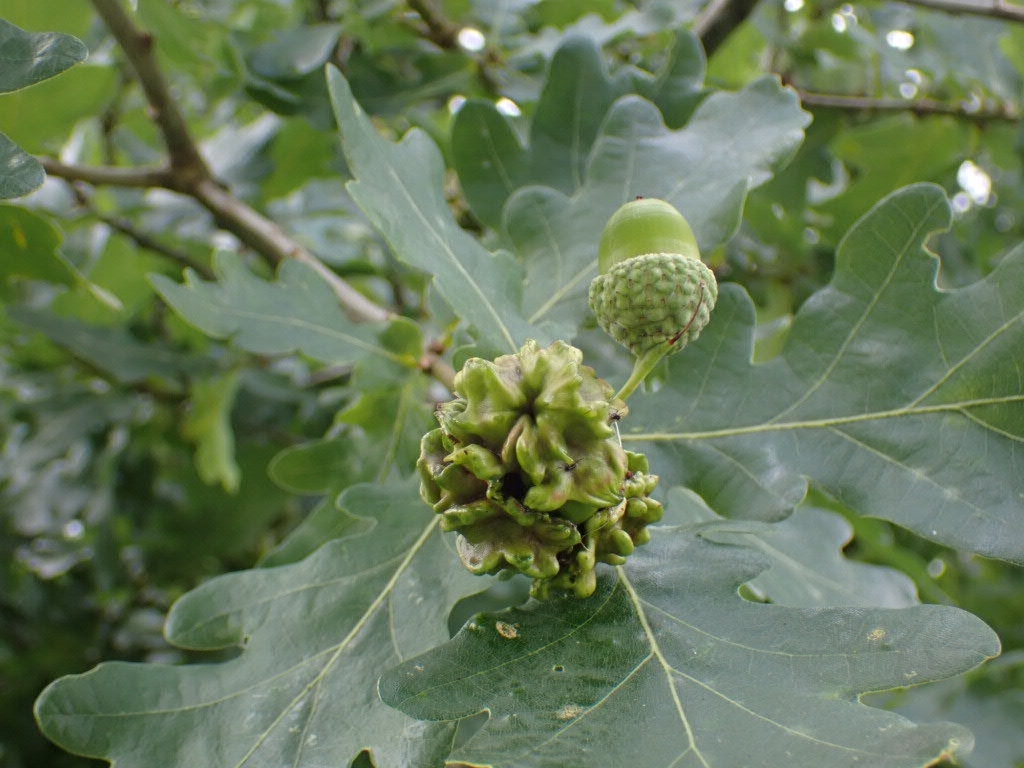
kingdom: Animalia
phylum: Arthropoda
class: Insecta
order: Hymenoptera
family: Cynipidae
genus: Andricus
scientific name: Andricus quercuscalicis
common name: Knopper gall
